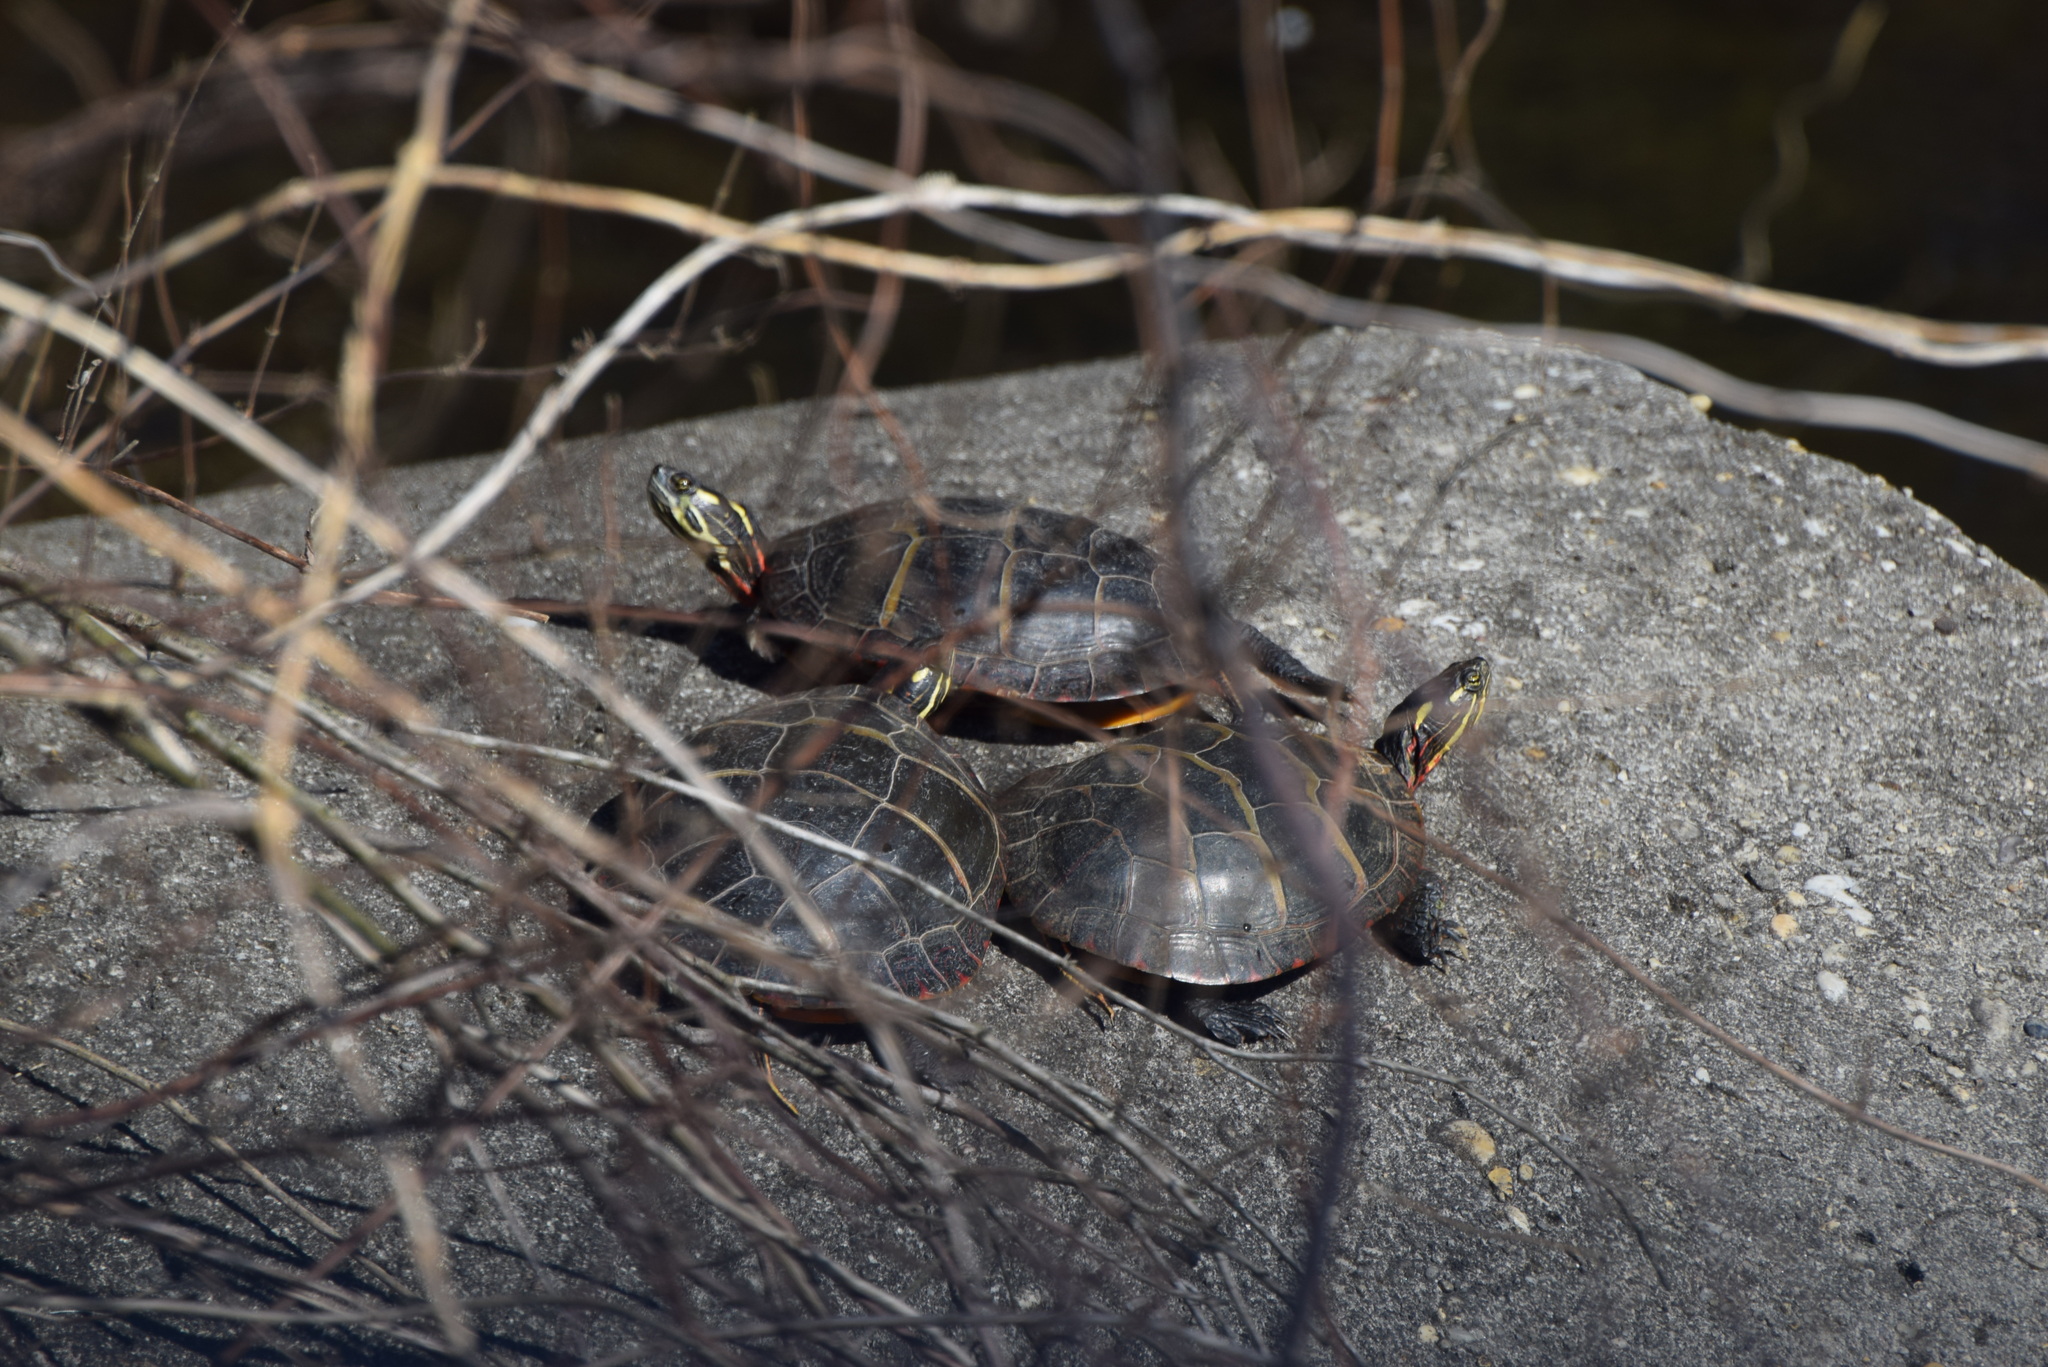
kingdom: Animalia
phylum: Chordata
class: Testudines
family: Emydidae
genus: Chrysemys
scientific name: Chrysemys picta
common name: Painted turtle
